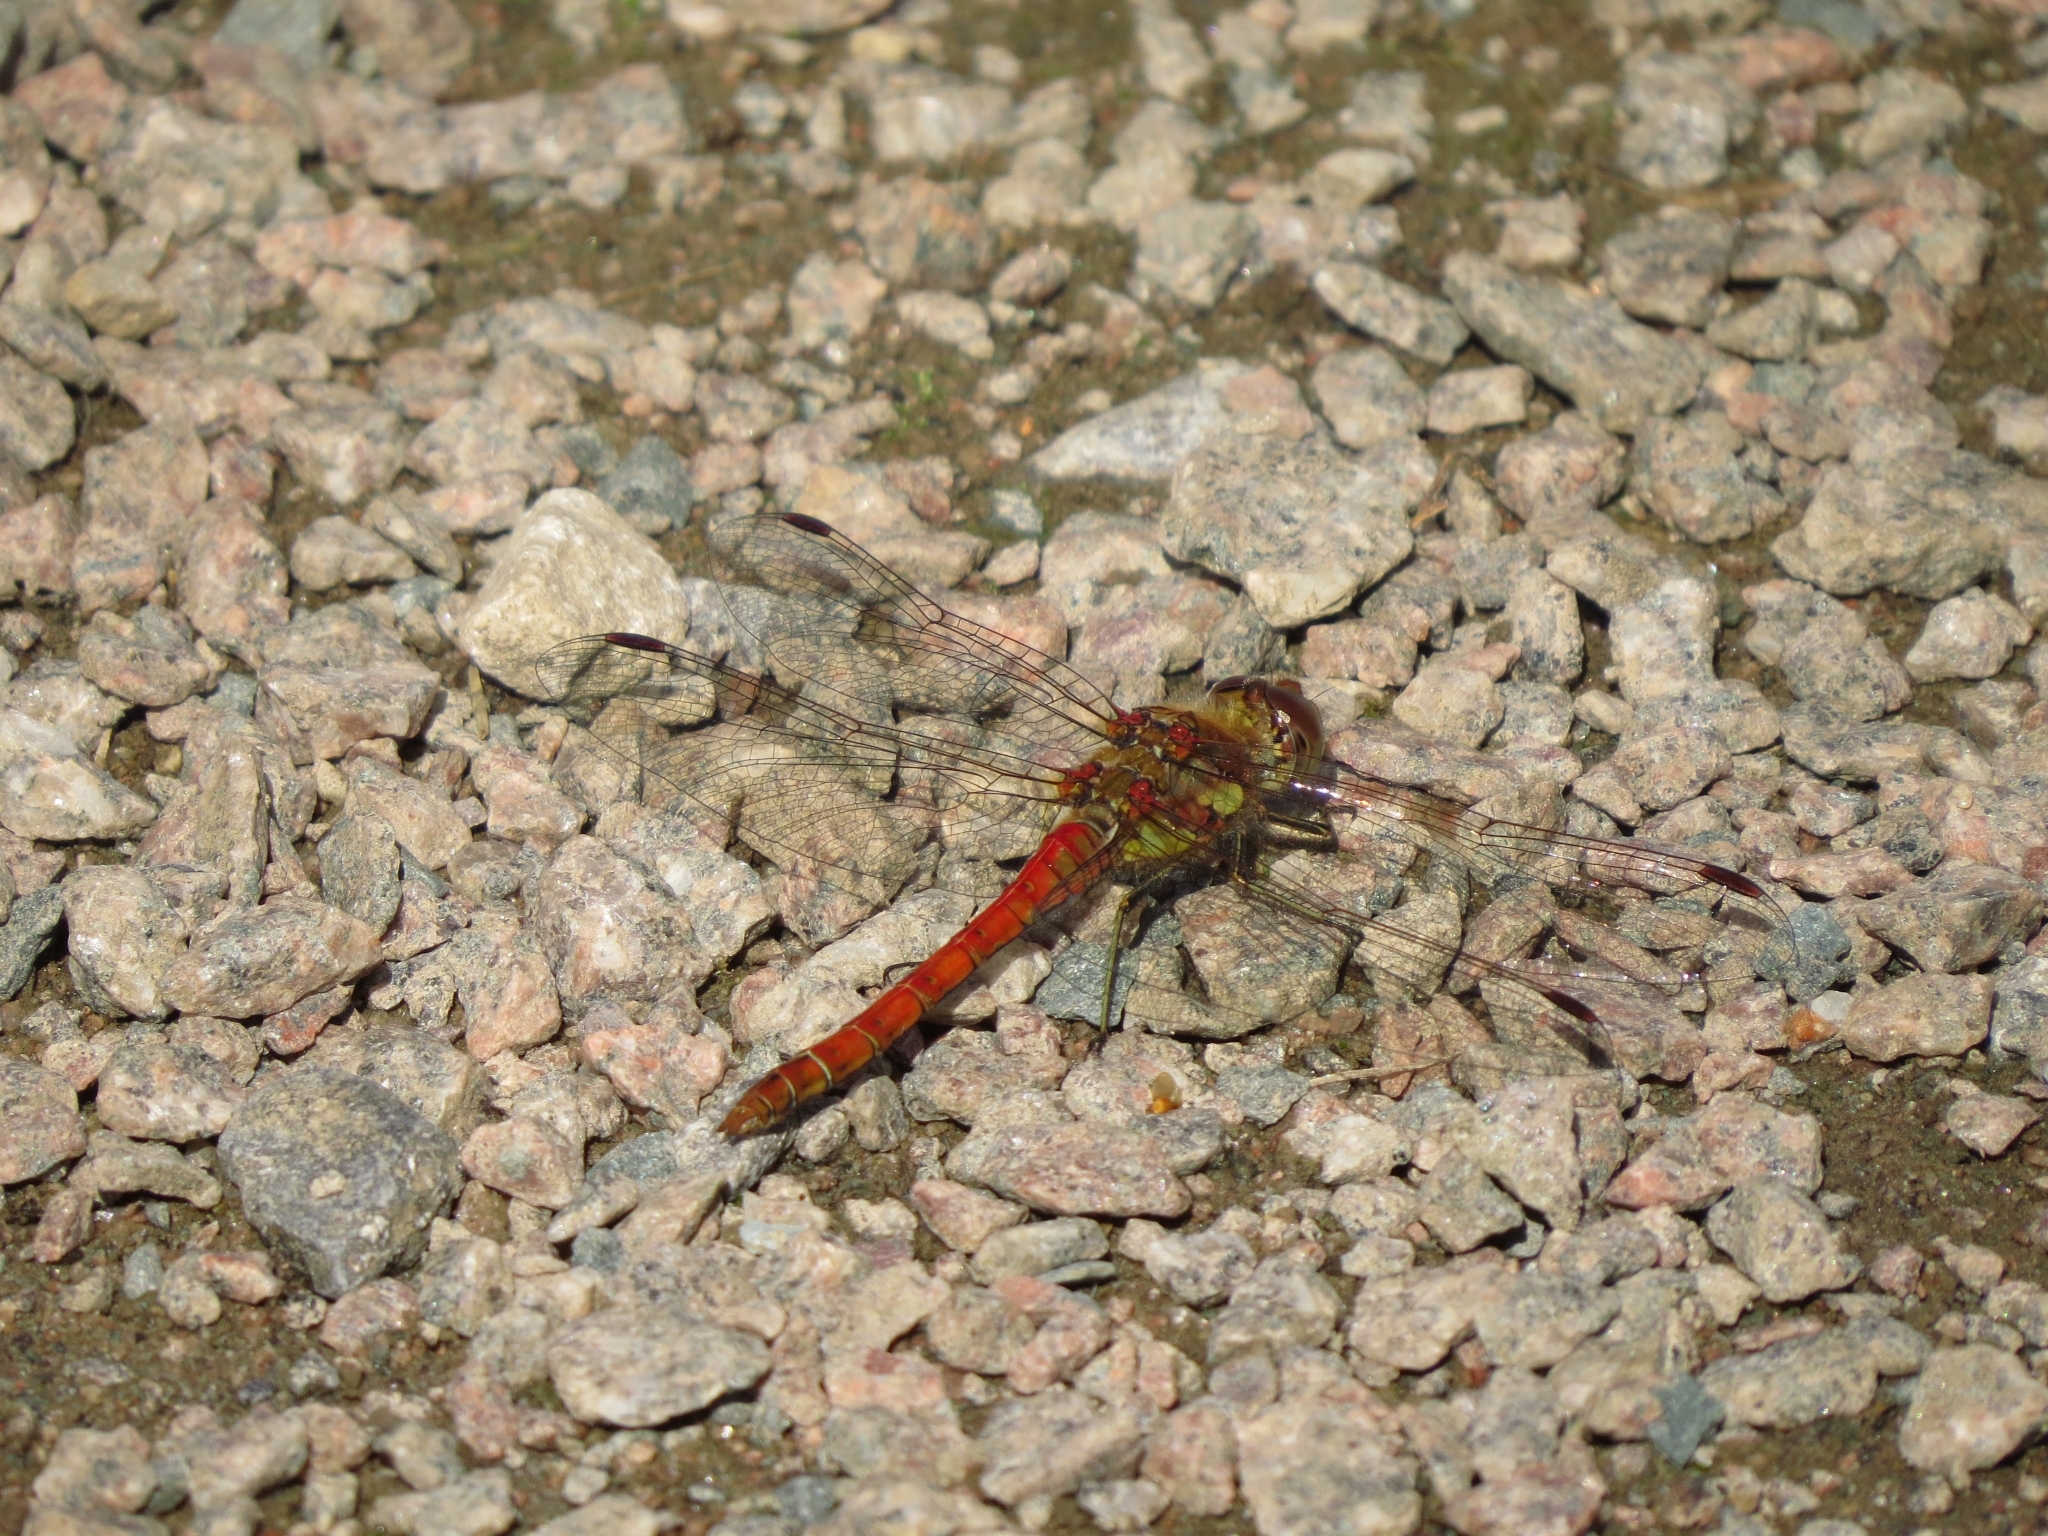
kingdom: Animalia
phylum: Arthropoda
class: Insecta
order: Odonata
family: Libellulidae
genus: Sympetrum
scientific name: Sympetrum striolatum
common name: Common darter
